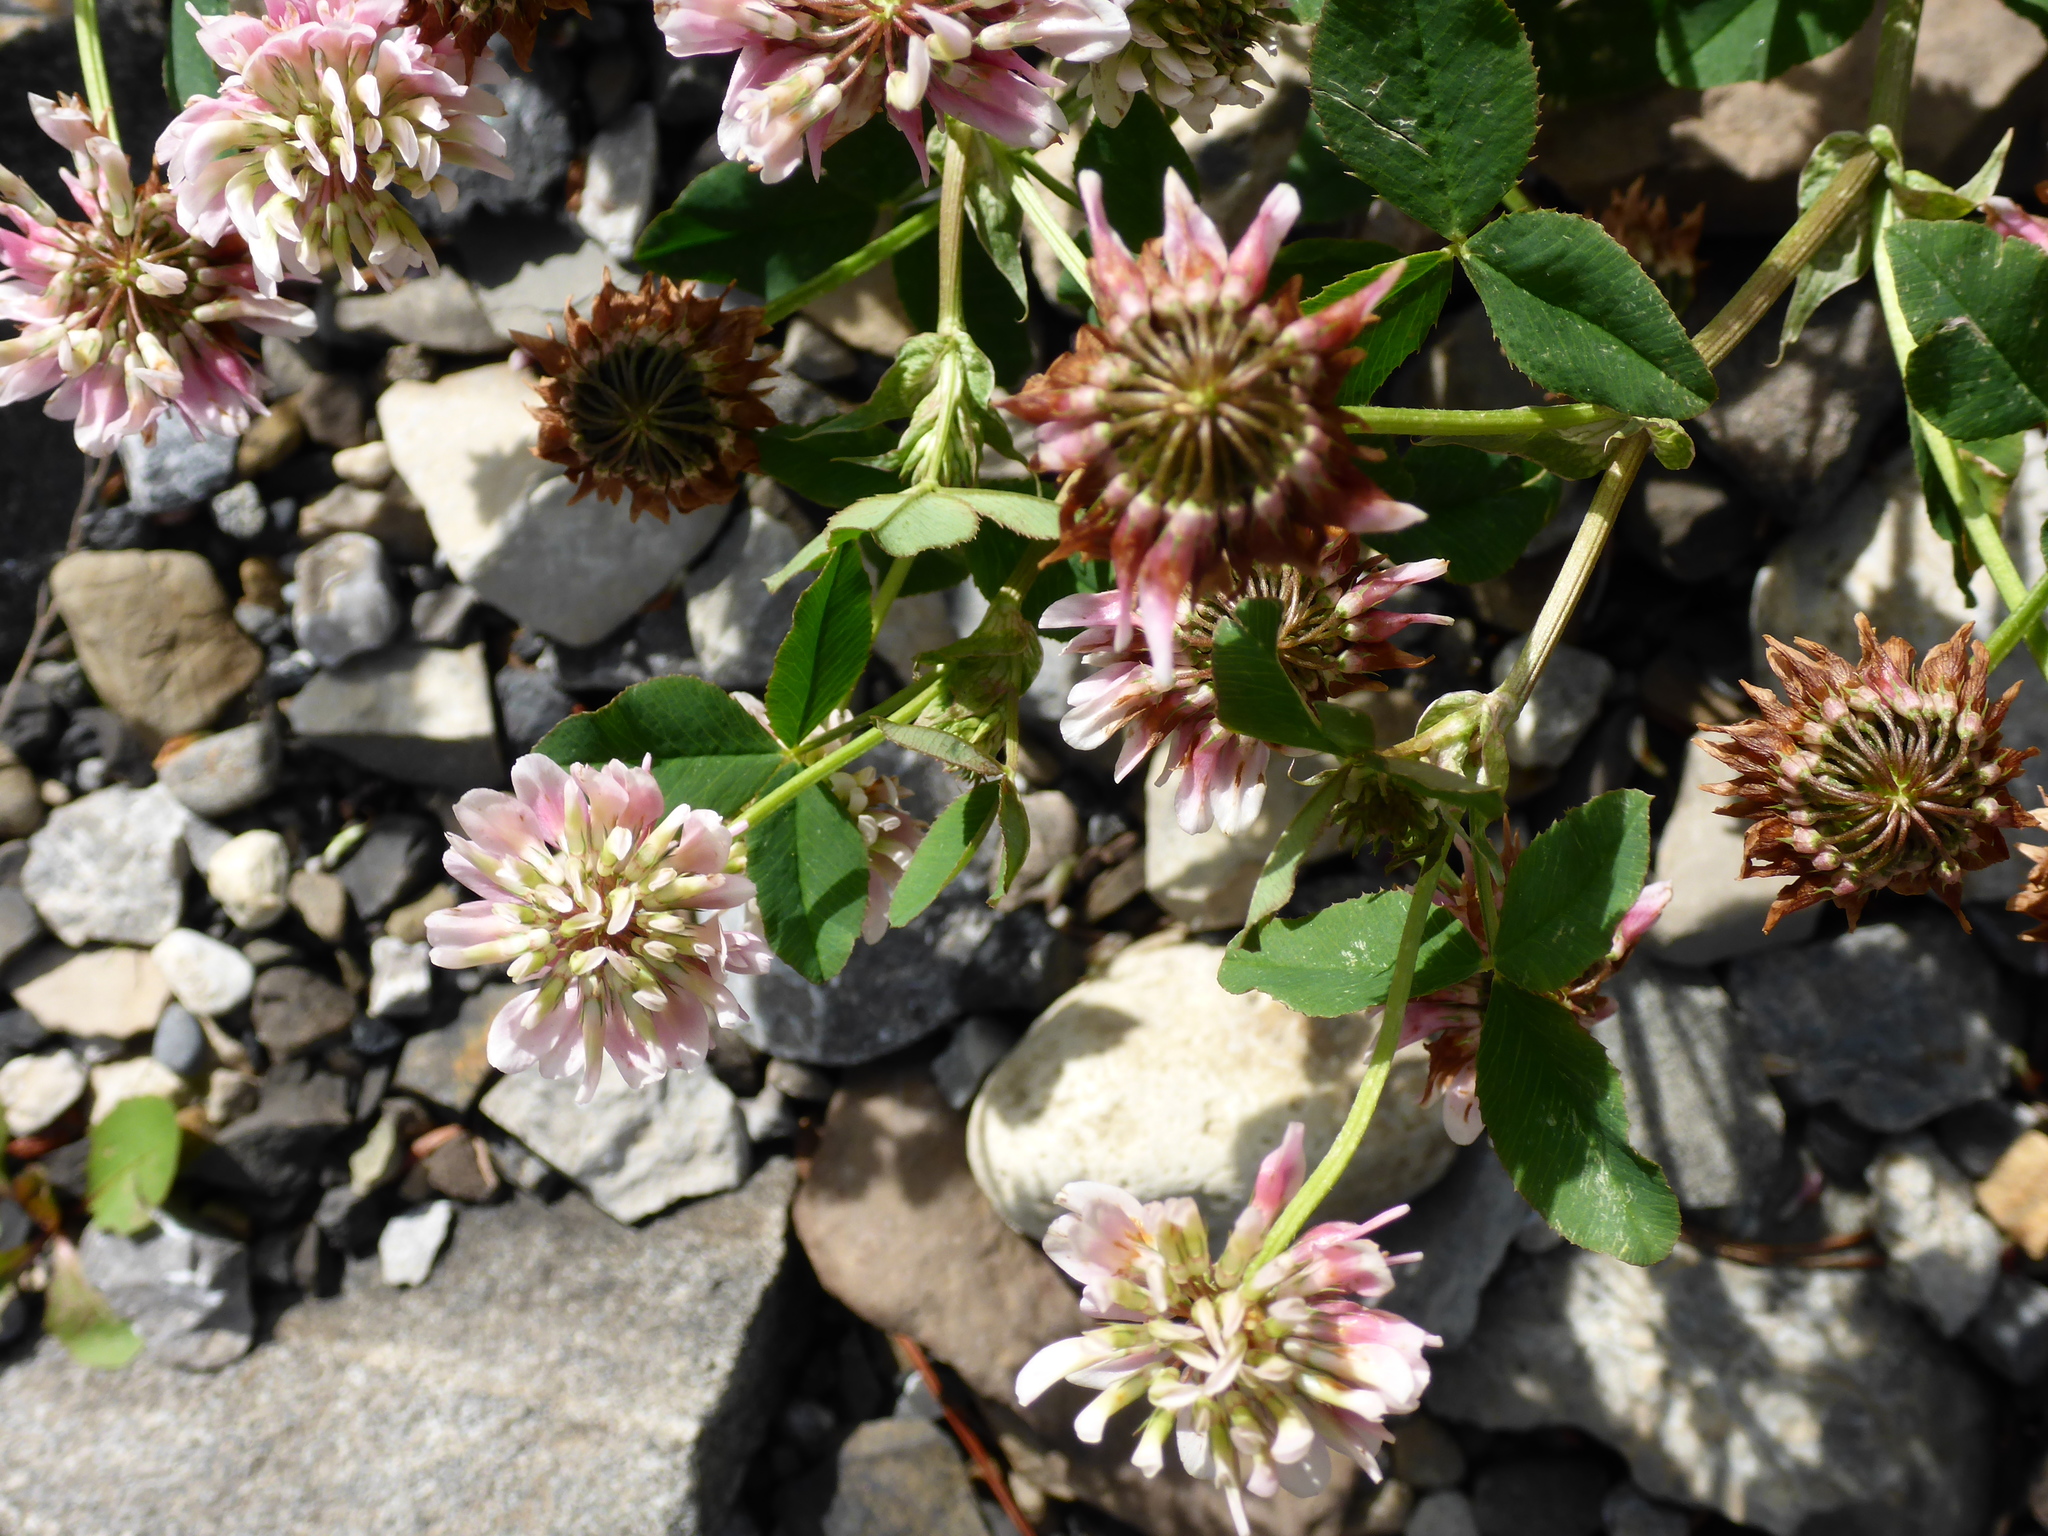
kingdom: Plantae
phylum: Tracheophyta
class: Magnoliopsida
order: Fabales
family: Fabaceae
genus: Trifolium
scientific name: Trifolium hybridum
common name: Alsike clover
